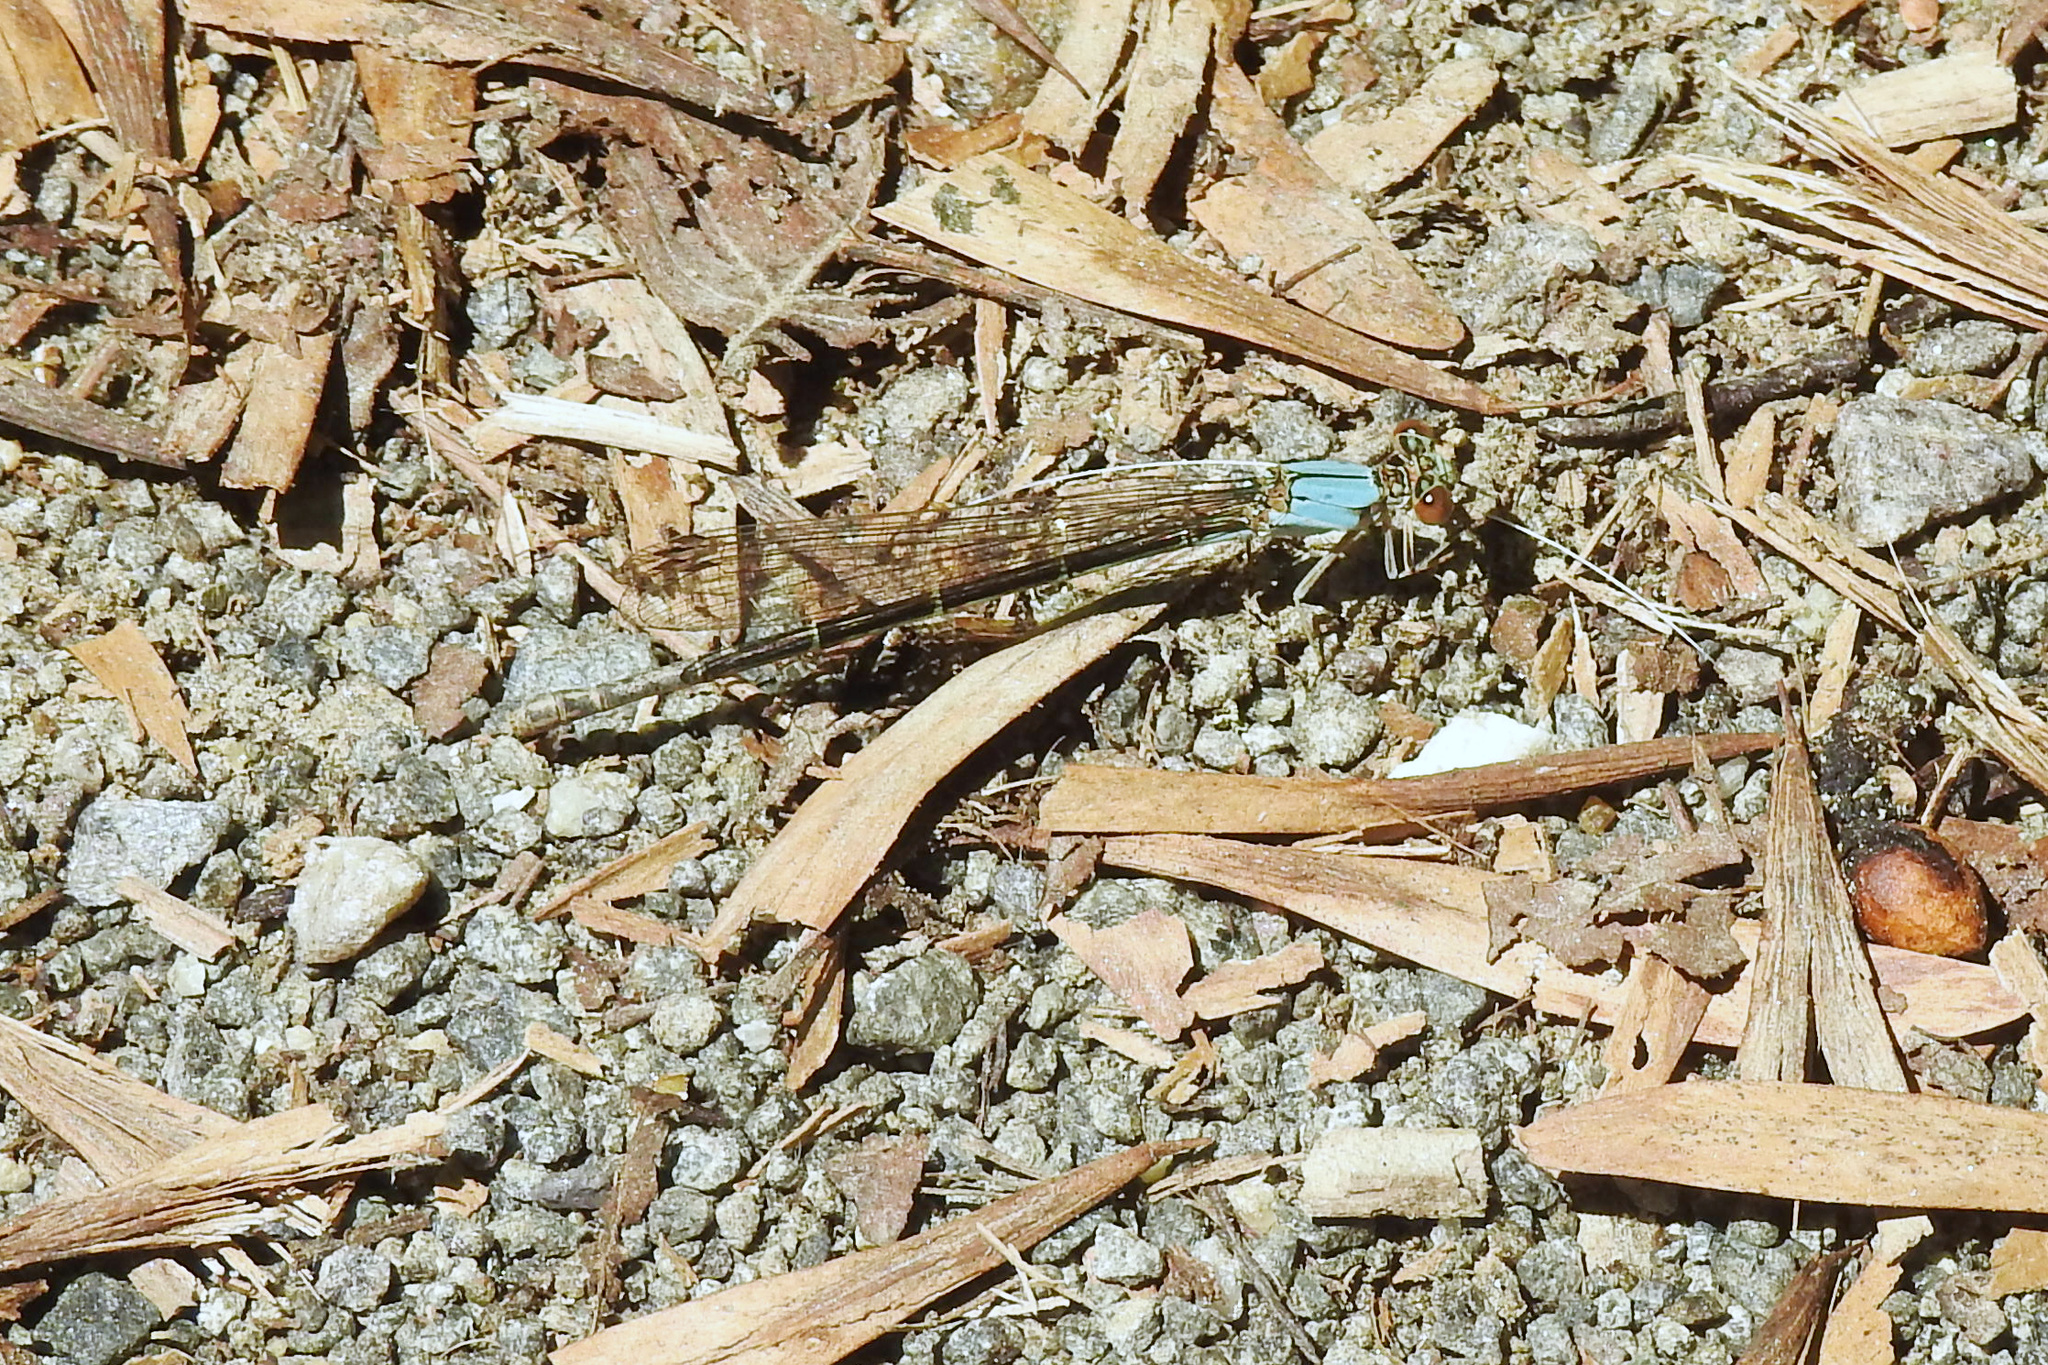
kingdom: Animalia
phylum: Arthropoda
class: Insecta
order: Odonata
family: Coenagrionidae
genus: Argia
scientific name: Argia apicalis
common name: Blue-fronted dancer
